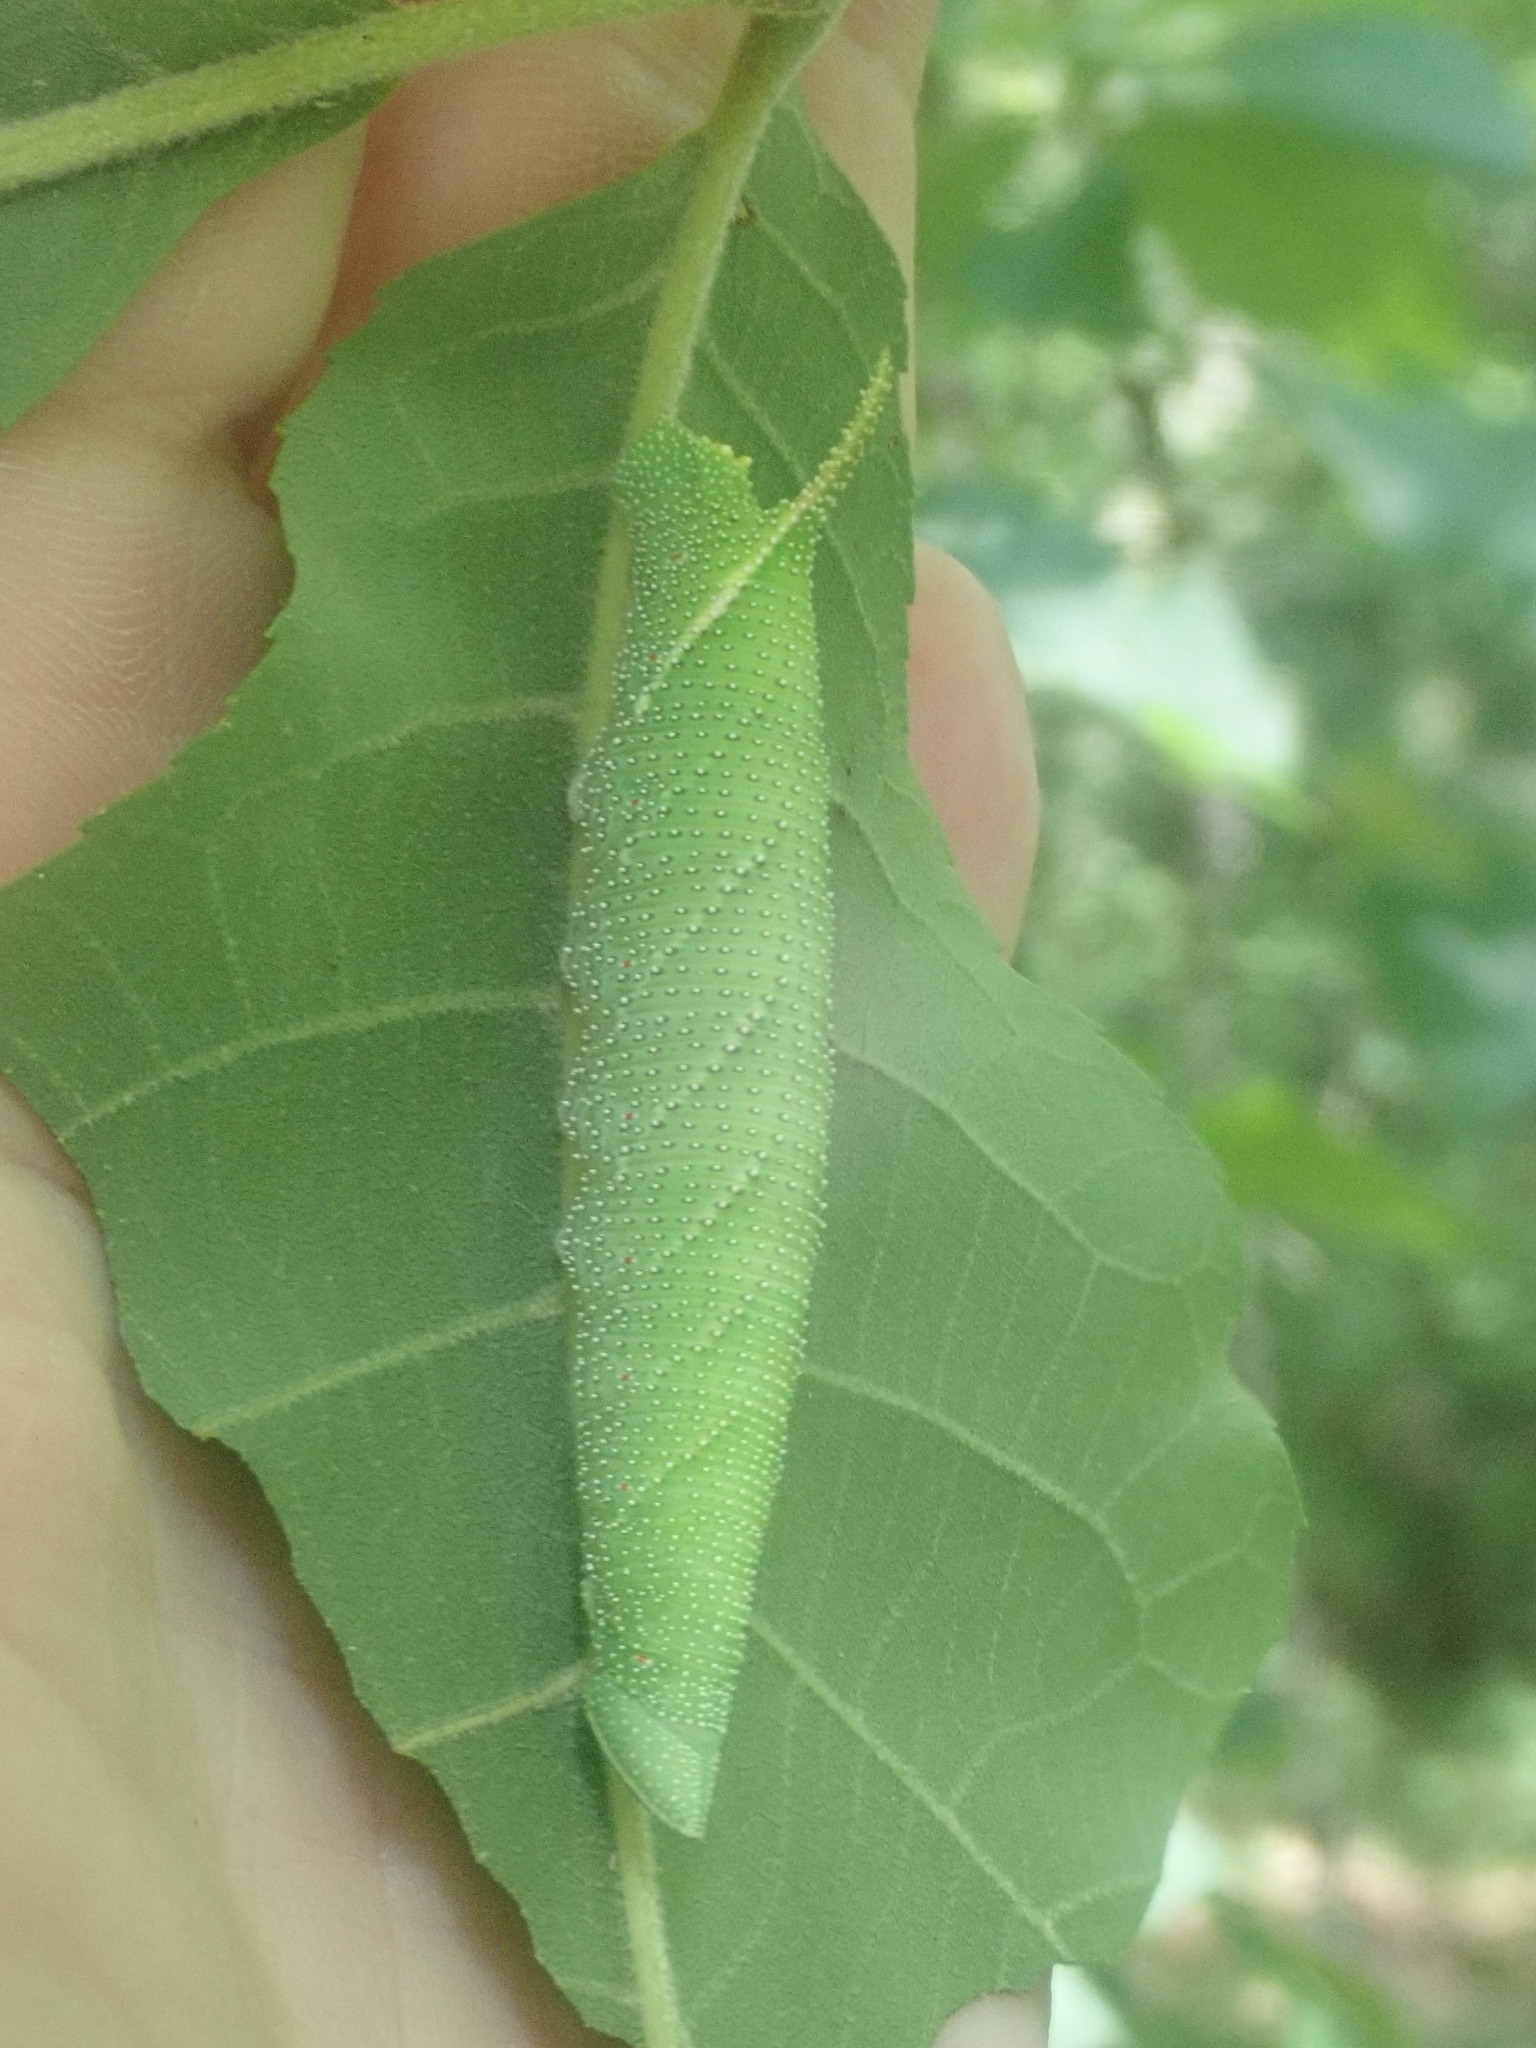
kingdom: Animalia
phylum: Arthropoda
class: Insecta
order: Lepidoptera
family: Sphingidae
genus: Amorpha
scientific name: Amorpha juglandis
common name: Walnut sphinx
